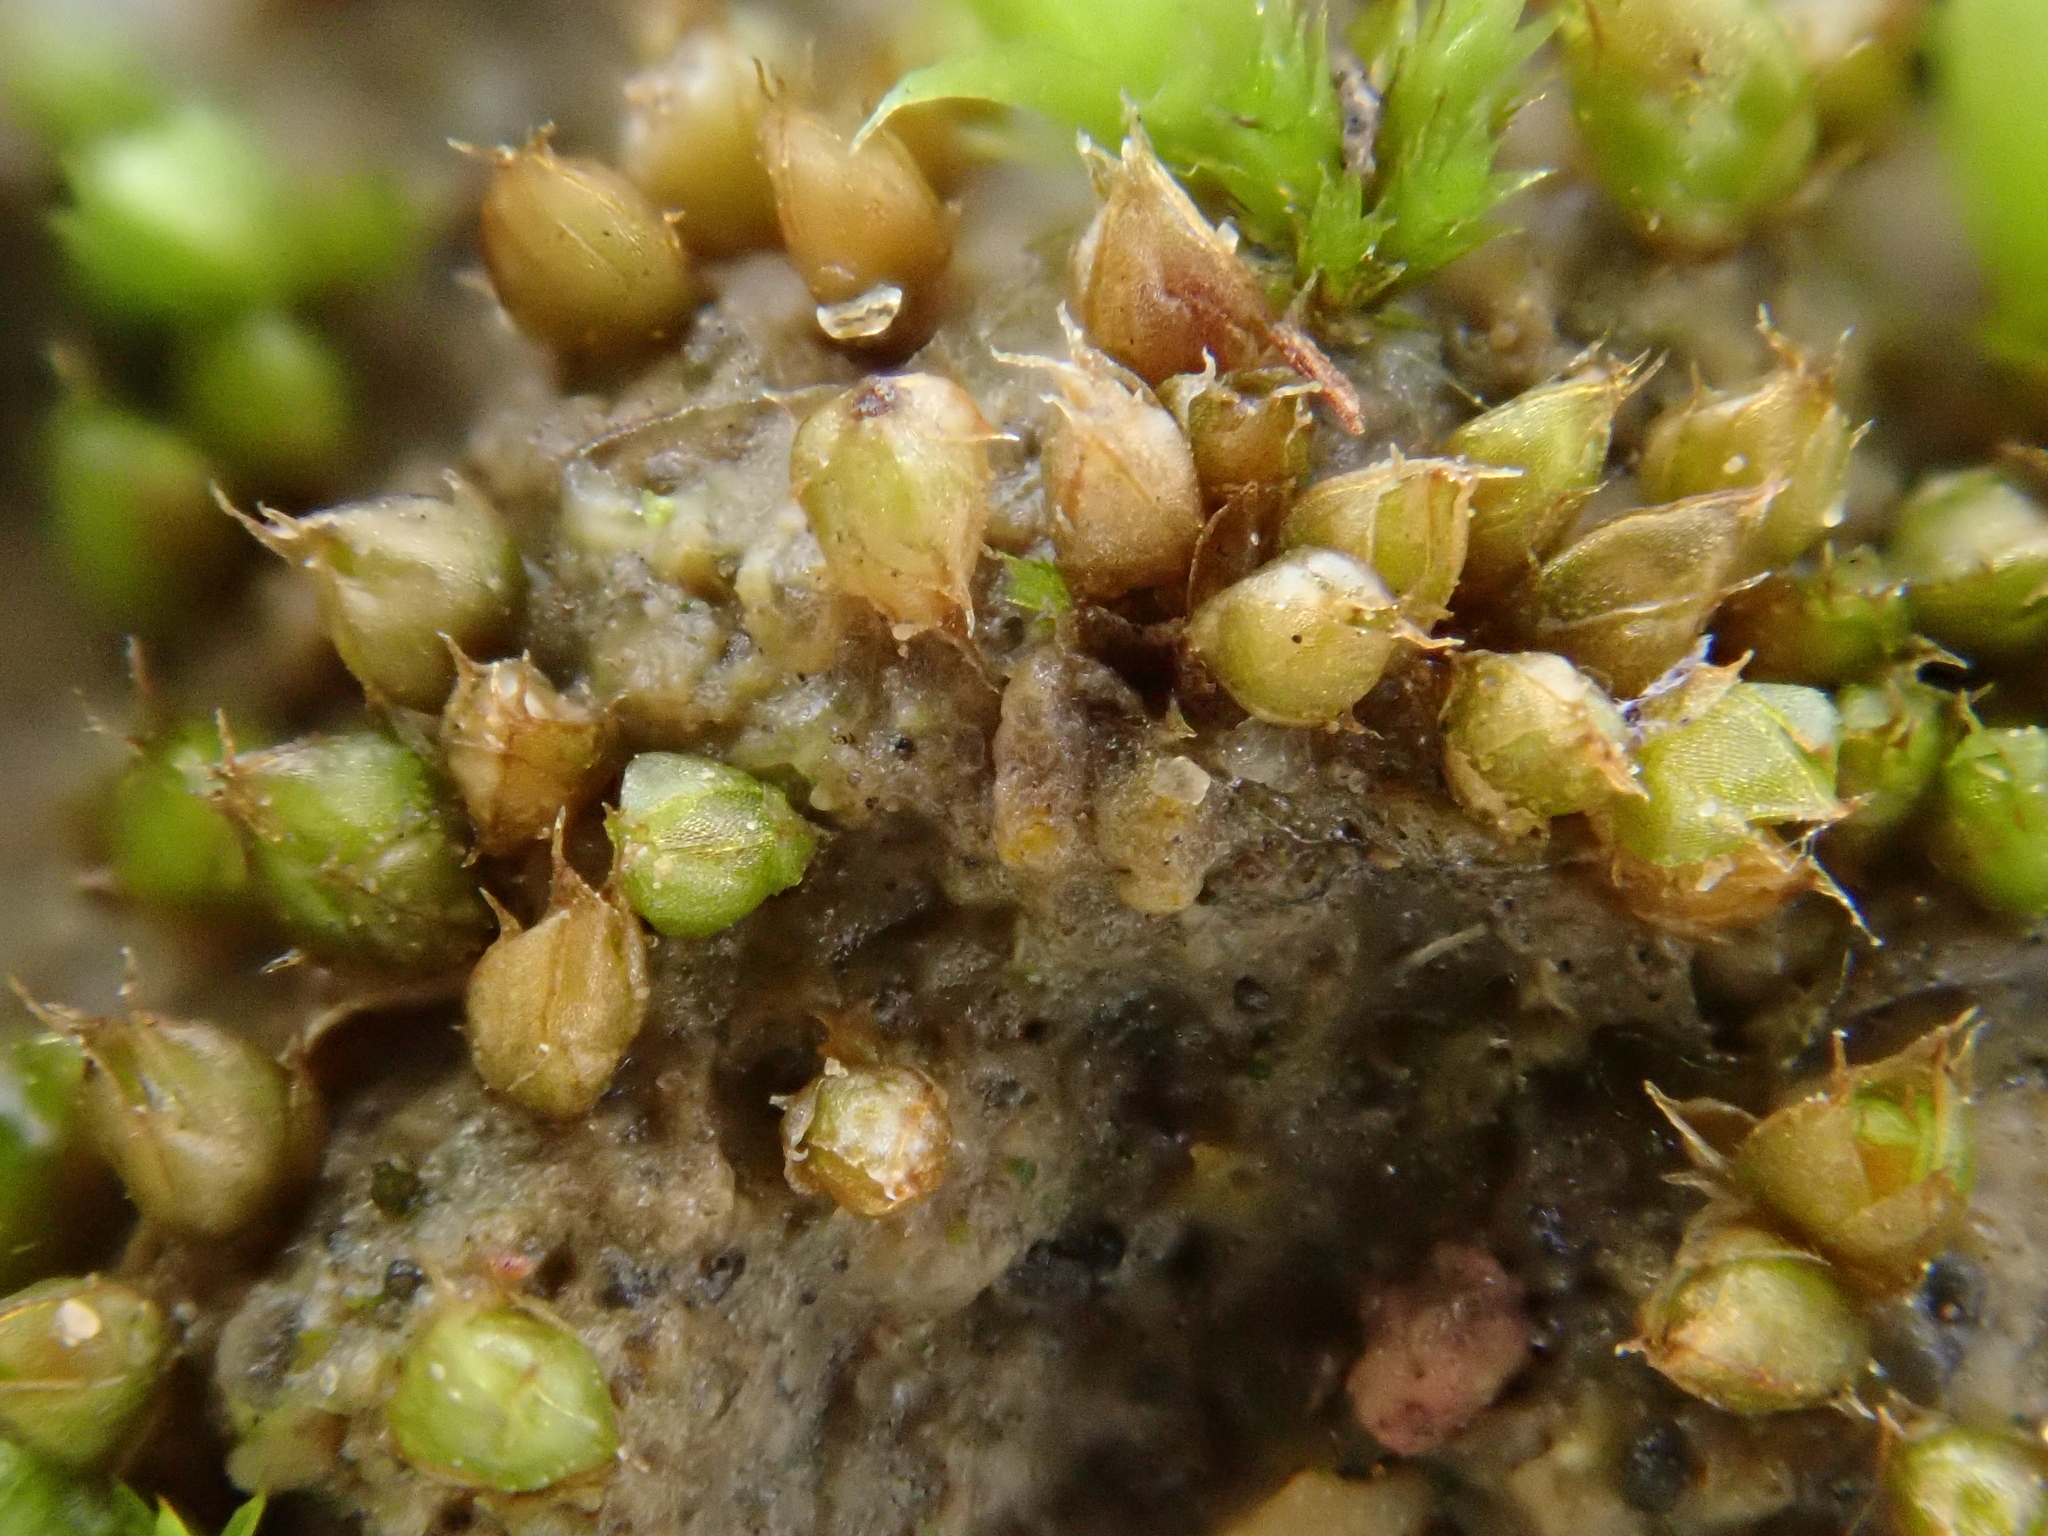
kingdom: Plantae
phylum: Bryophyta
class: Bryopsida
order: Pottiales
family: Pottiaceae
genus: Acaulon
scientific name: Acaulon triquetrum
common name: Triangular pygmy-moss
